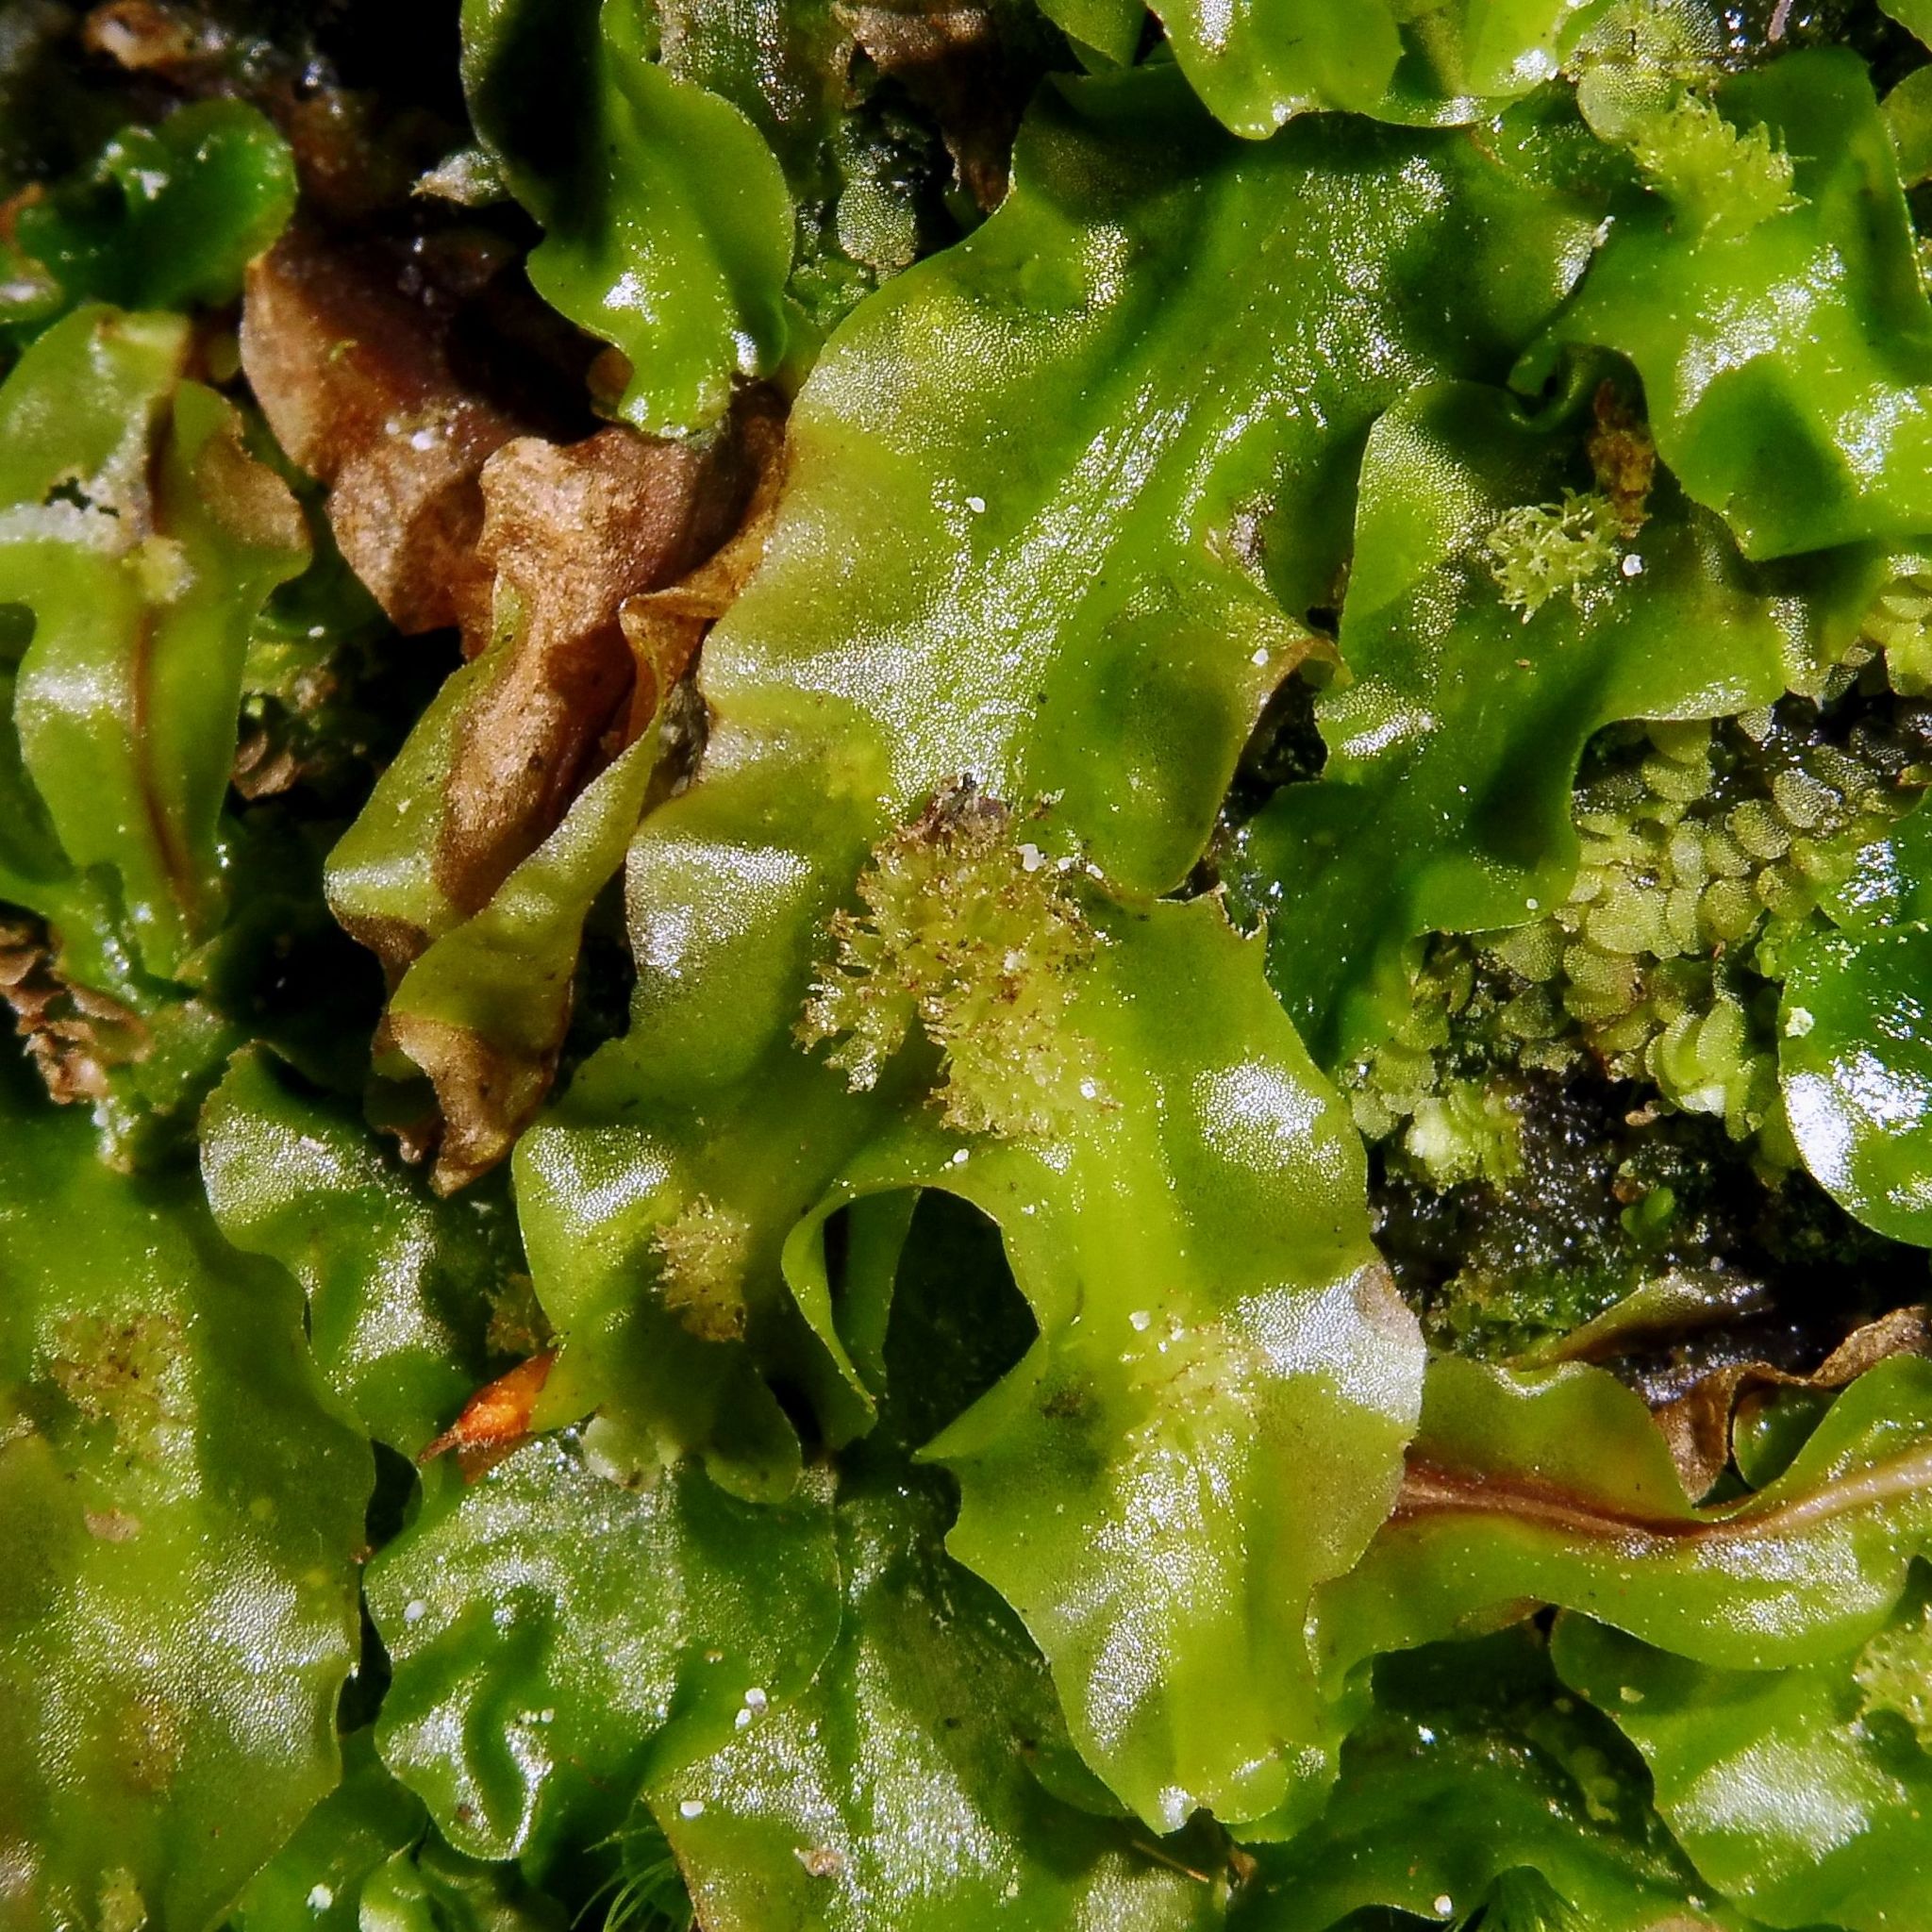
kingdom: Plantae
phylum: Marchantiophyta
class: Jungermanniopsida
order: Pallaviciniales
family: Pallaviciniaceae
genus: Pallavicinia
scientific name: Pallavicinia lyellii
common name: Veilwort
